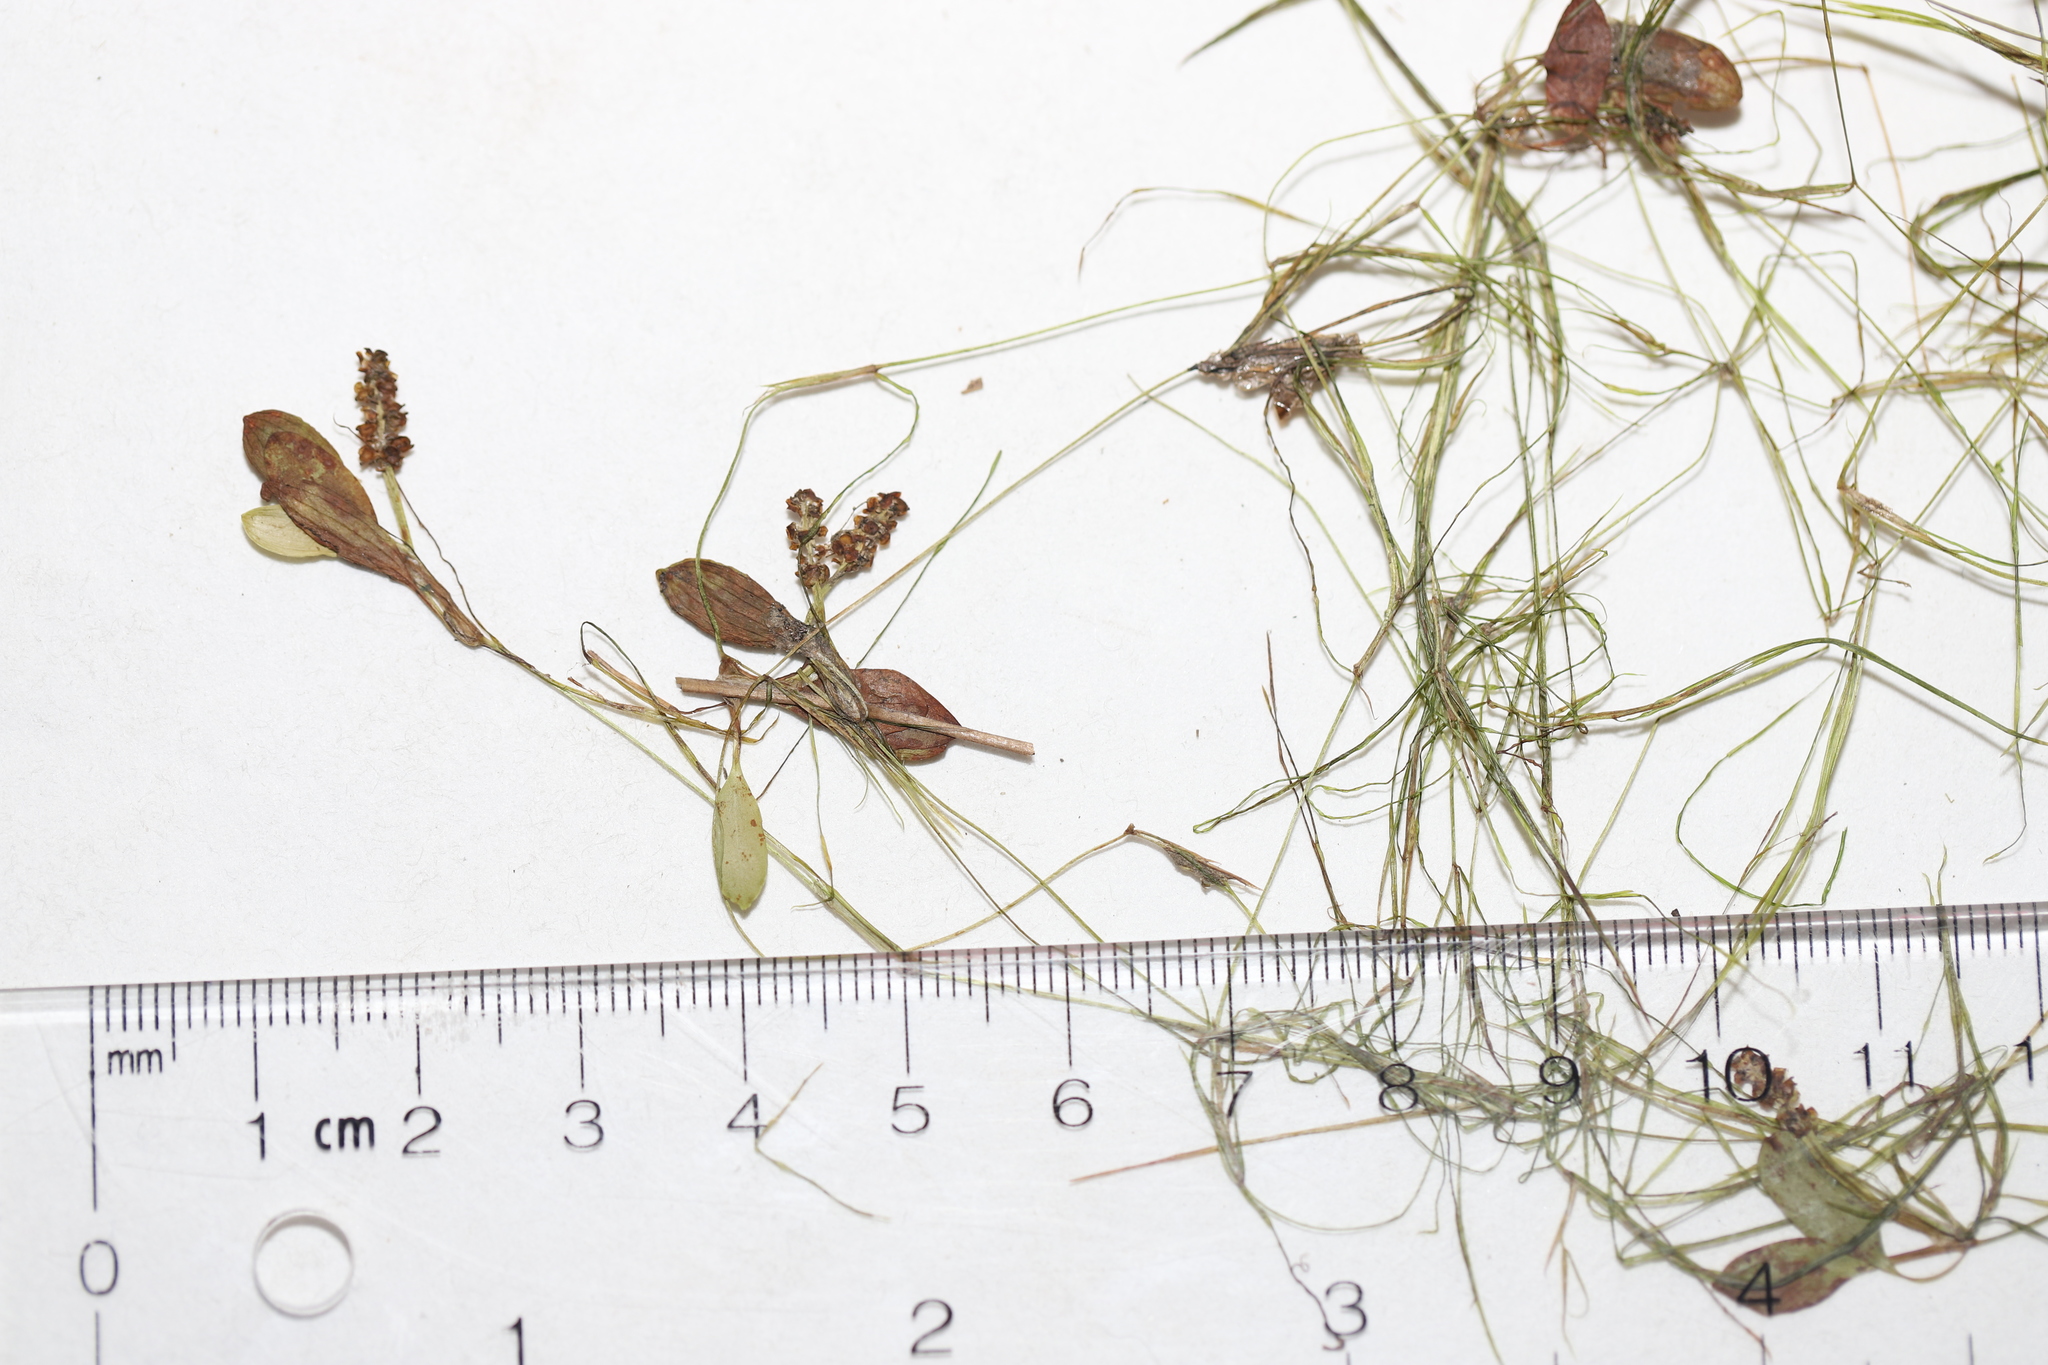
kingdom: Plantae
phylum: Tracheophyta
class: Liliopsida
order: Alismatales
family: Potamogetonaceae
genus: Potamogeton
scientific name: Potamogeton vaseyi
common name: Vasey's pondweed
